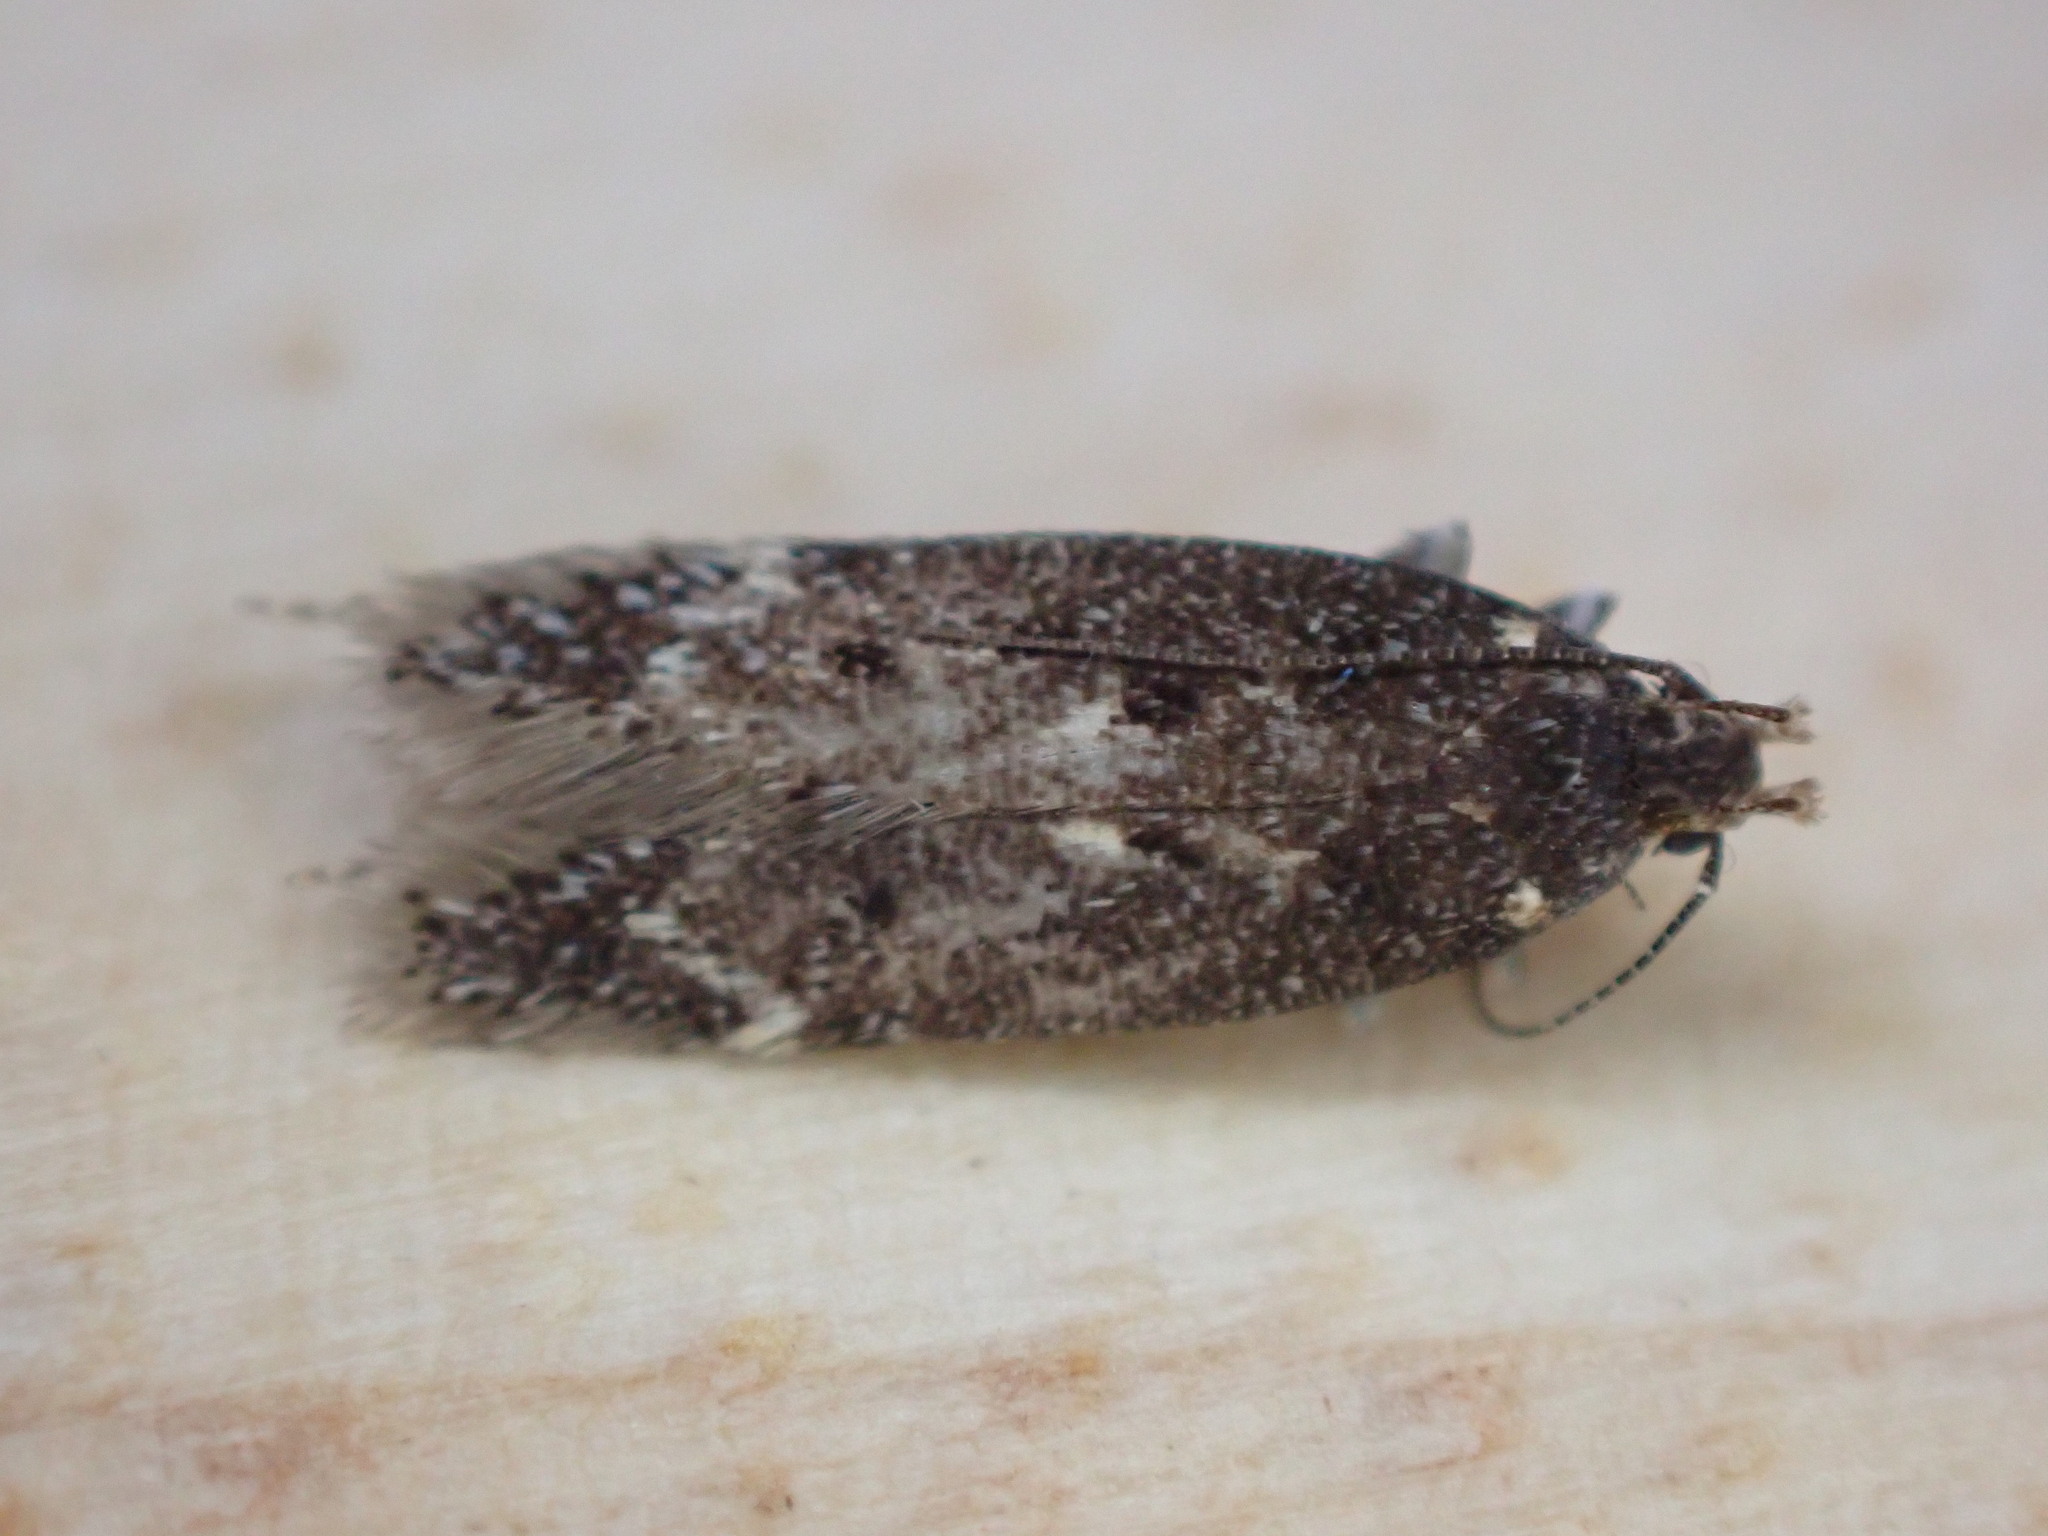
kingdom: Animalia
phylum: Arthropoda
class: Insecta
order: Lepidoptera
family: Gelechiidae
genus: Bryotropha
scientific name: Bryotropha affinis
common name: Dark groundling
